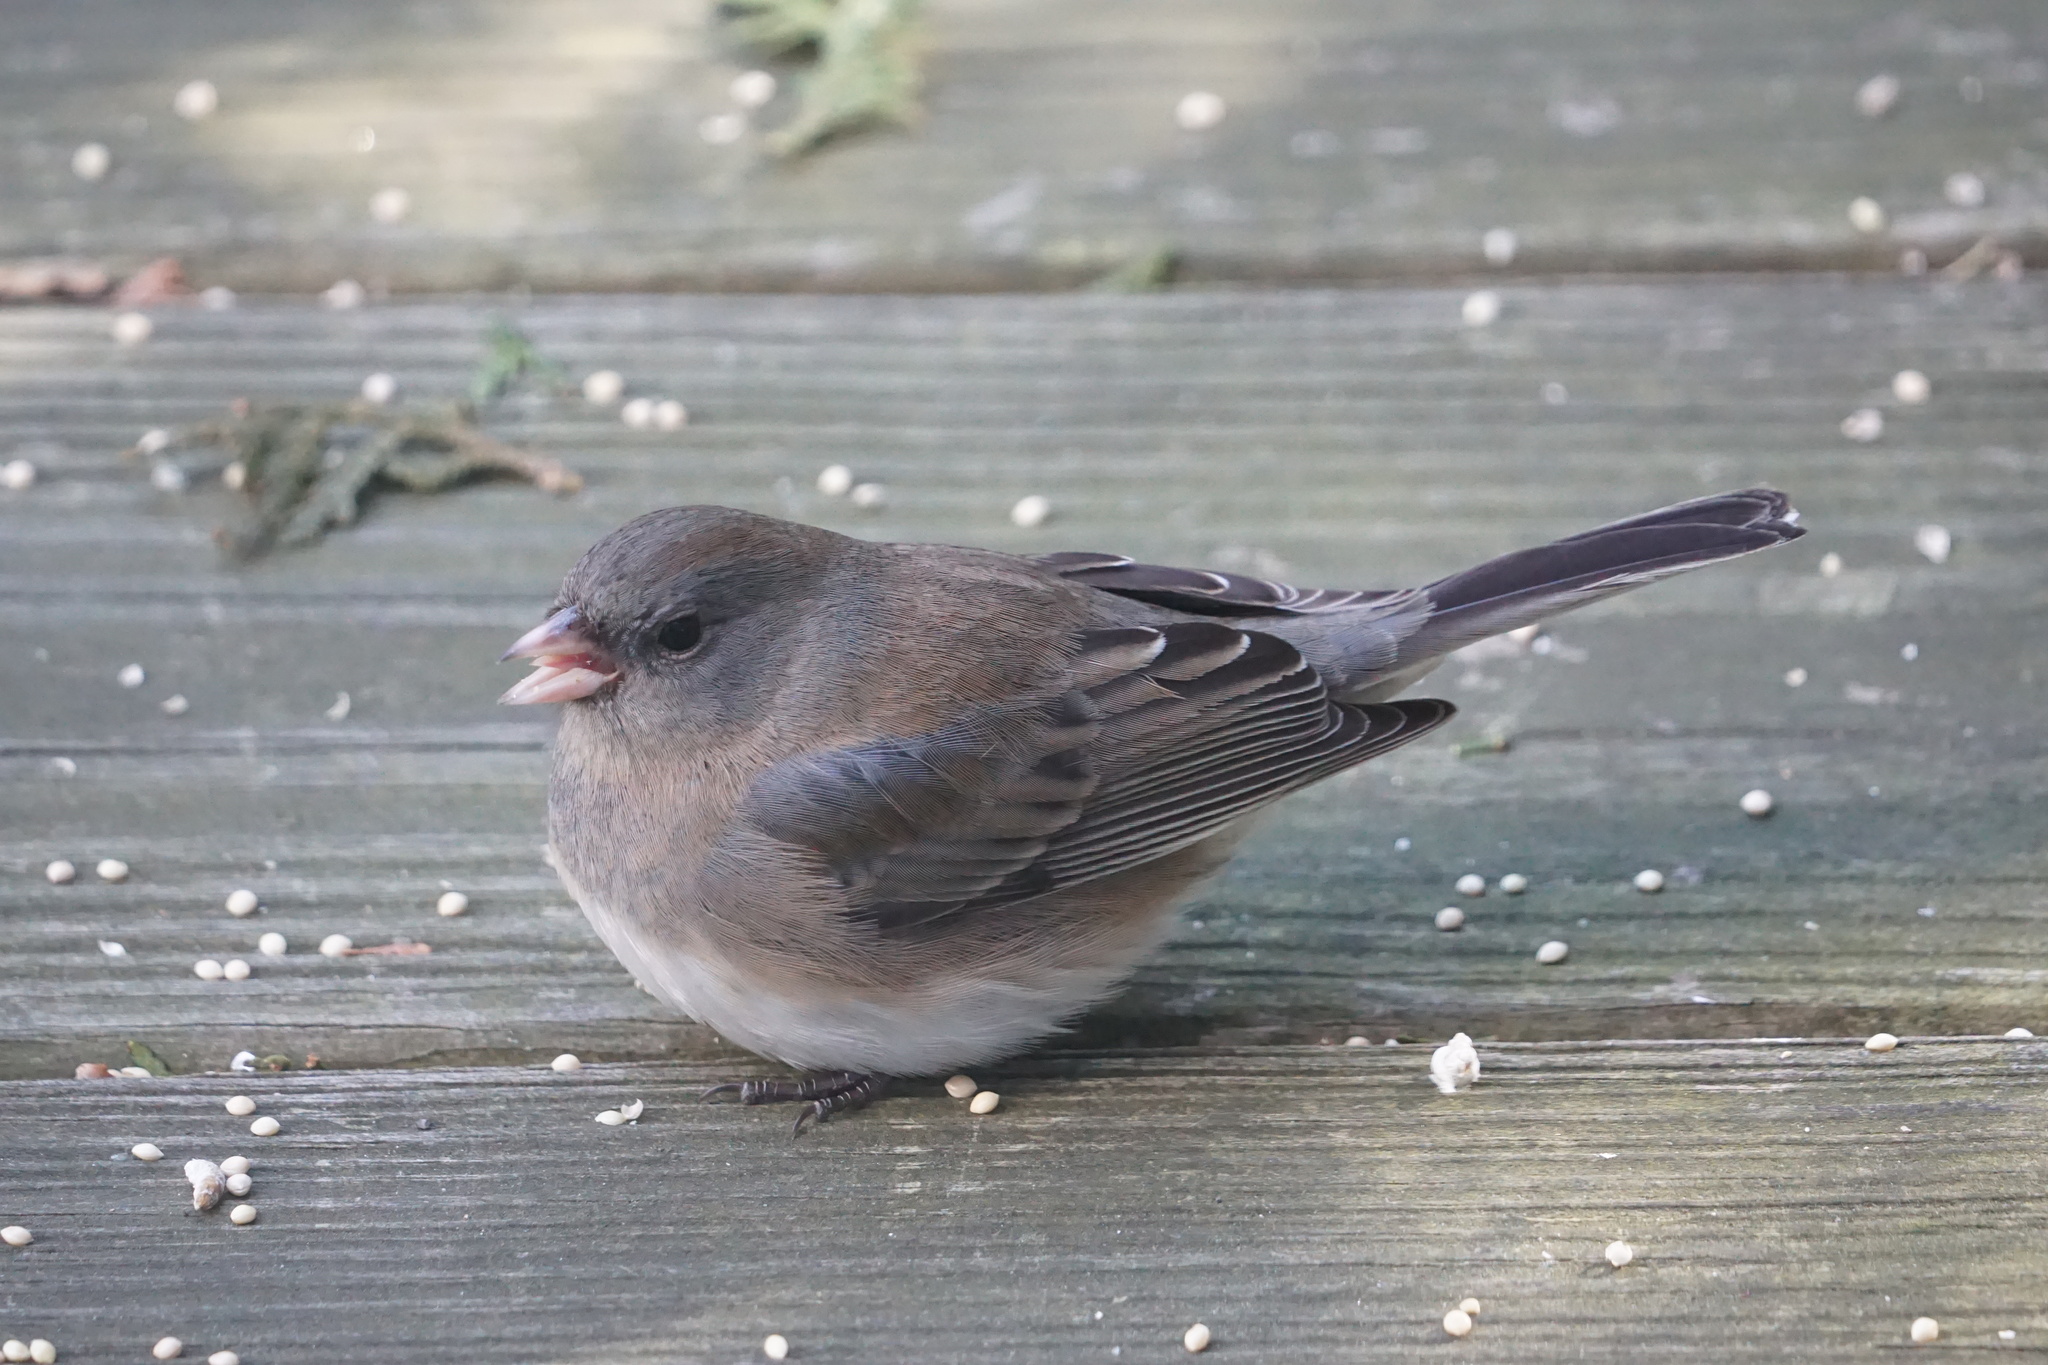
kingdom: Animalia
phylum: Chordata
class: Aves
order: Passeriformes
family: Passerellidae
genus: Junco
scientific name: Junco hyemalis
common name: Dark-eyed junco
